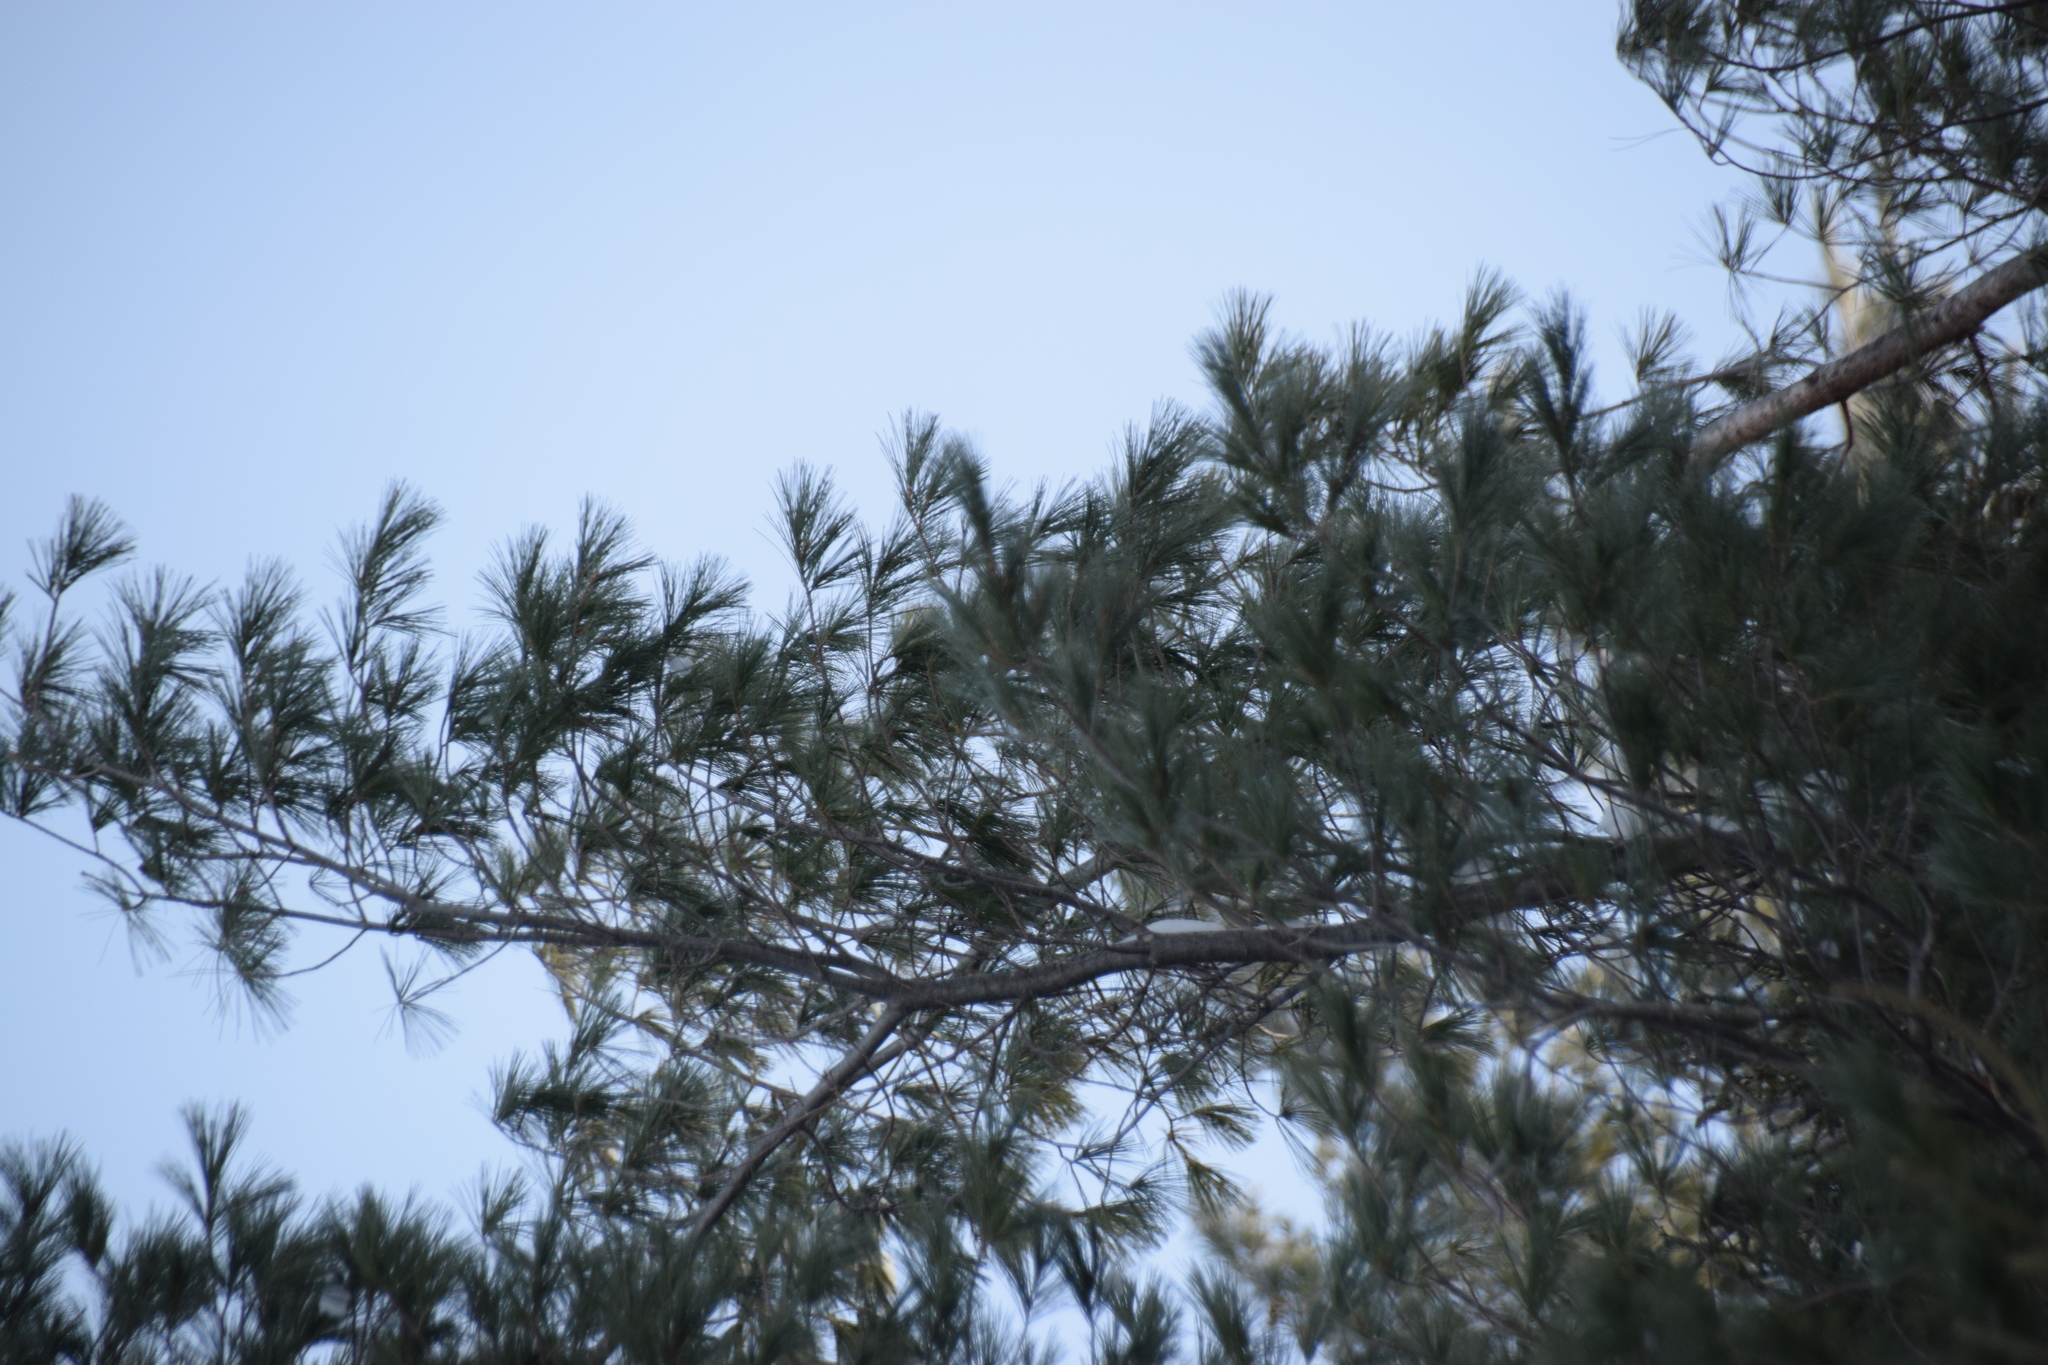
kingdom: Plantae
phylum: Tracheophyta
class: Pinopsida
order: Pinales
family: Pinaceae
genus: Pinus
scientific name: Pinus strobus
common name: Weymouth pine
